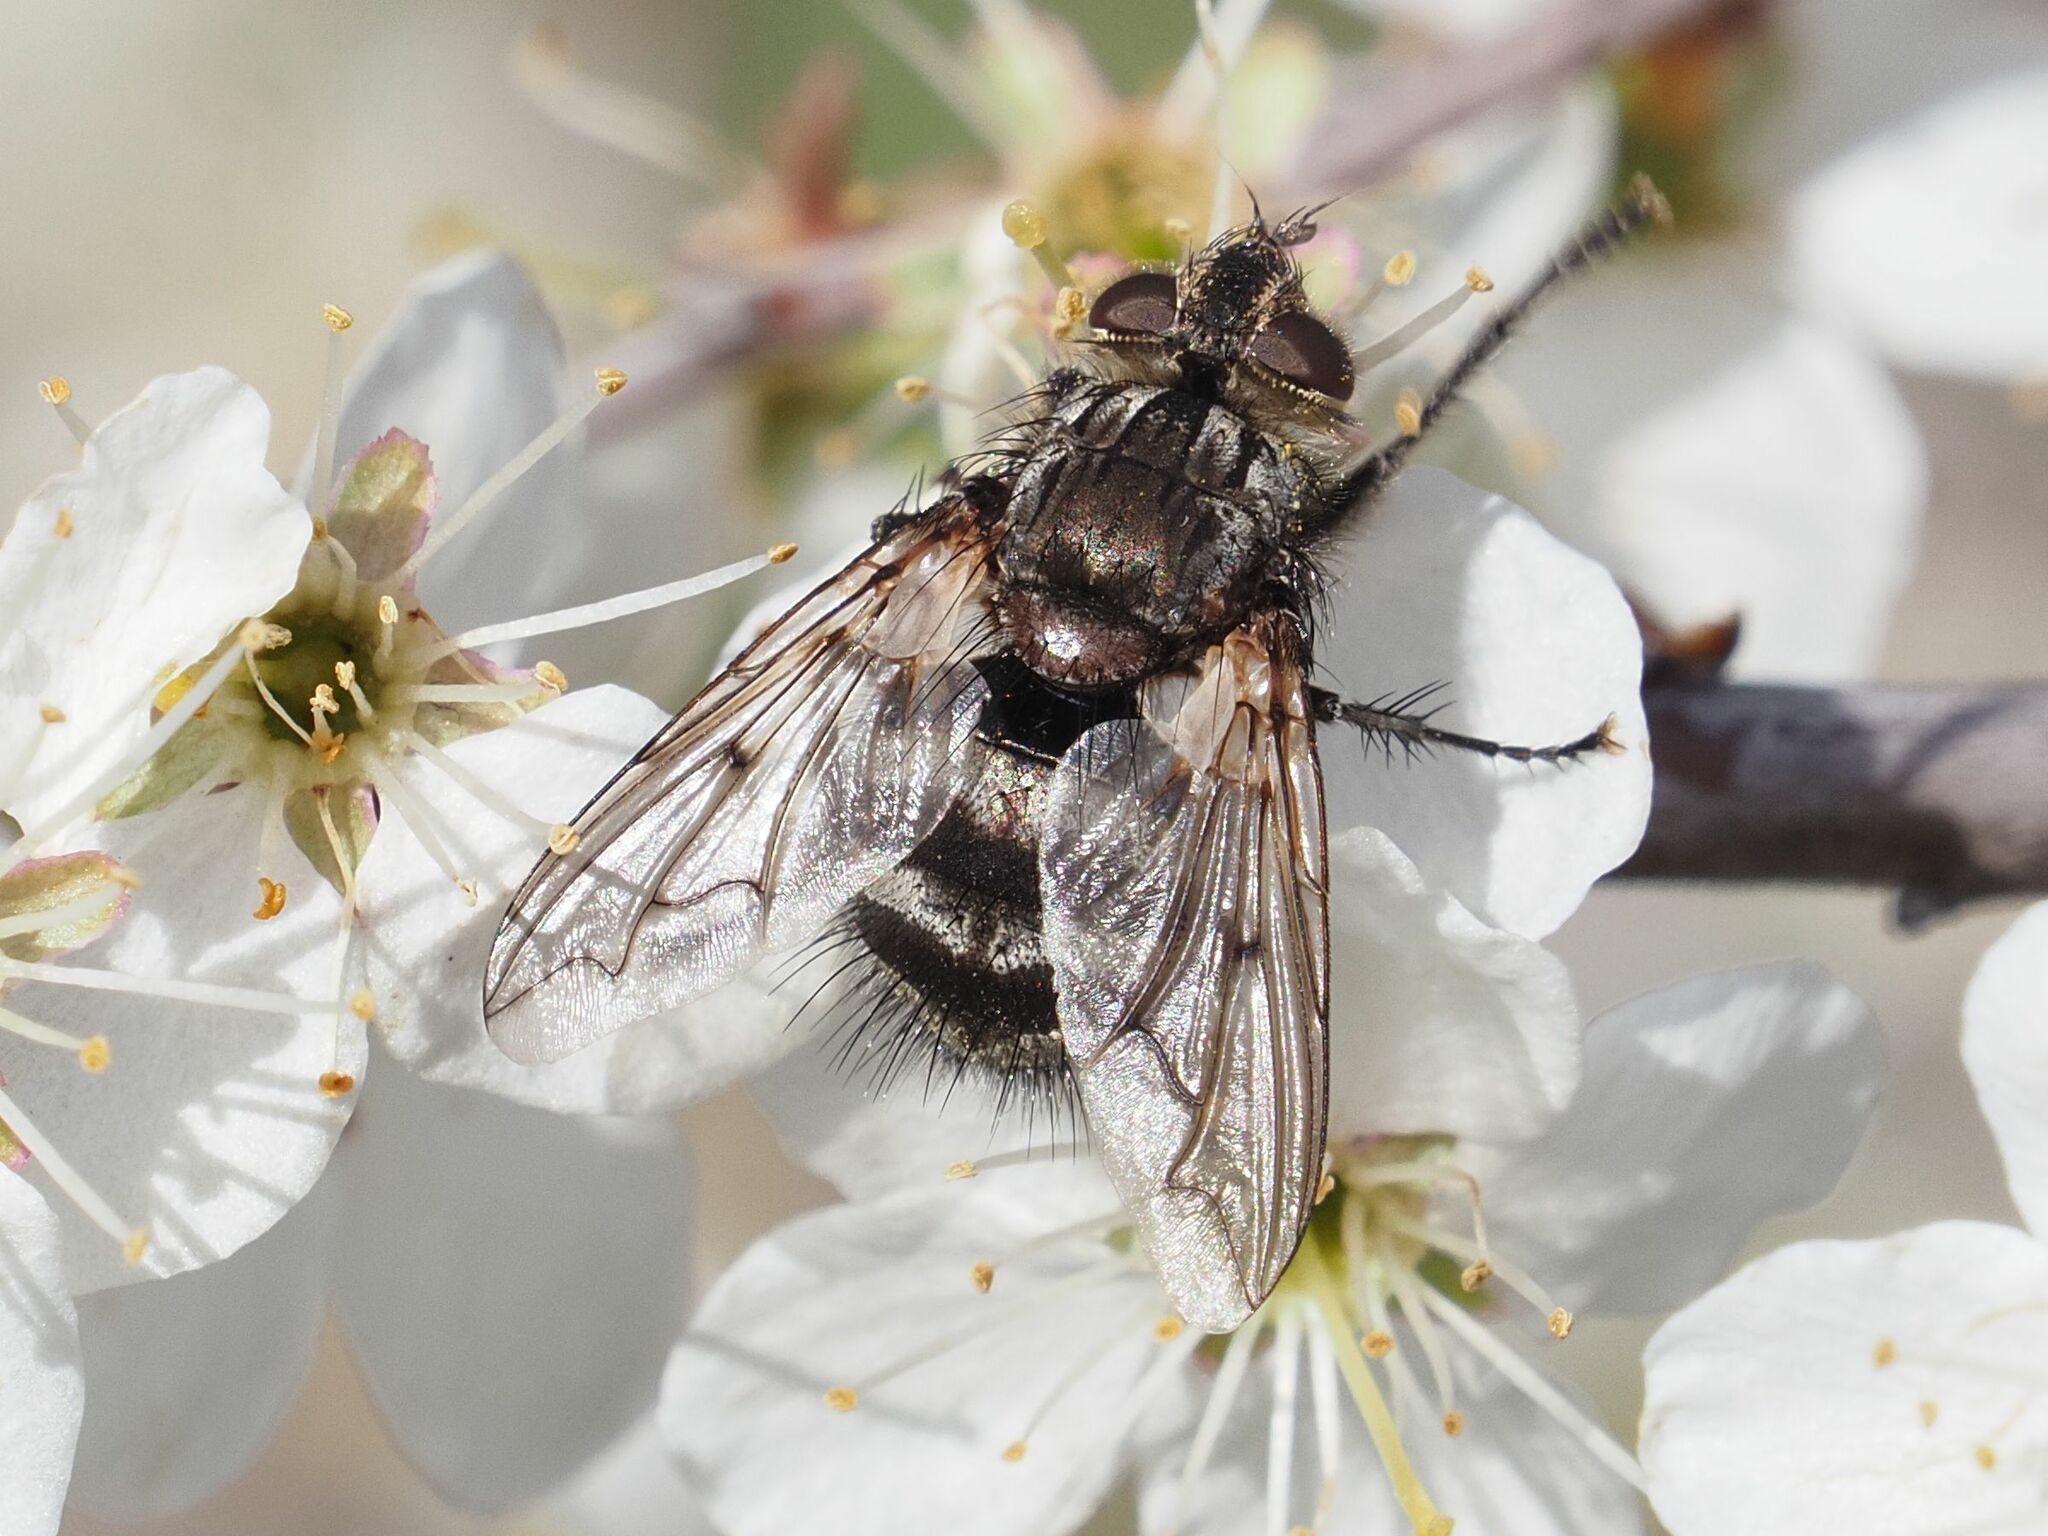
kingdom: Animalia
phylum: Arthropoda
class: Insecta
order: Diptera
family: Tachinidae
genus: Panzeria
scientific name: Panzeria puparum
